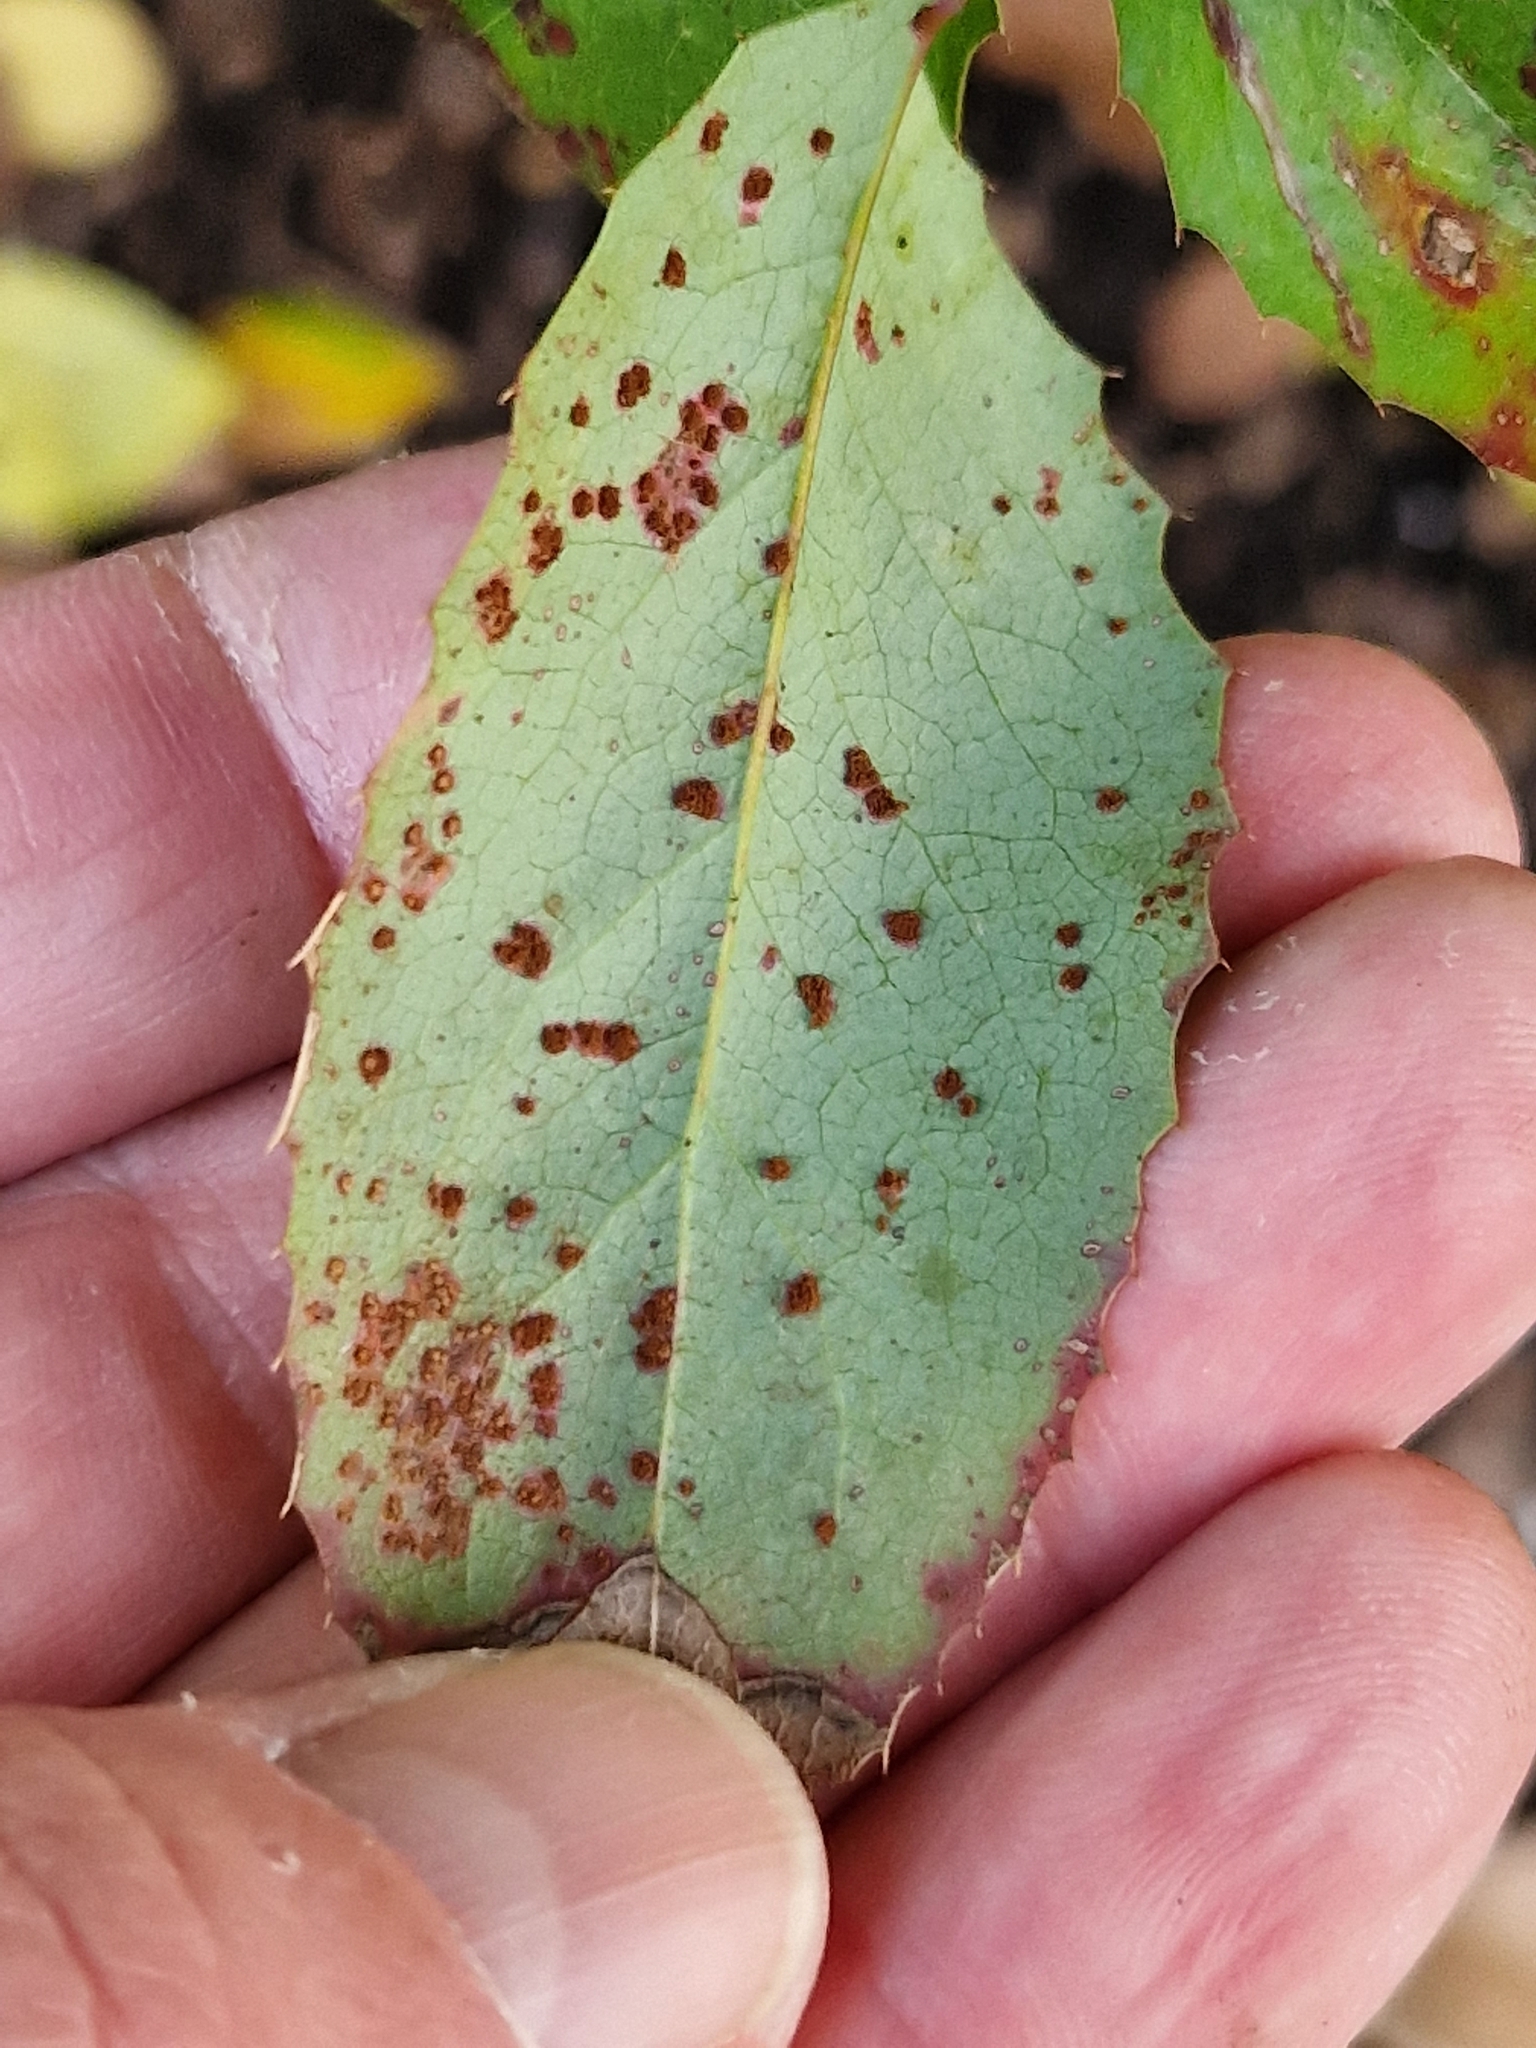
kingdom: Fungi
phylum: Basidiomycota
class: Pucciniomycetes
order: Pucciniales
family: Pucciniaceae
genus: Cumminsiella
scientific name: Cumminsiella mirabilissima
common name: Mahonia rust
